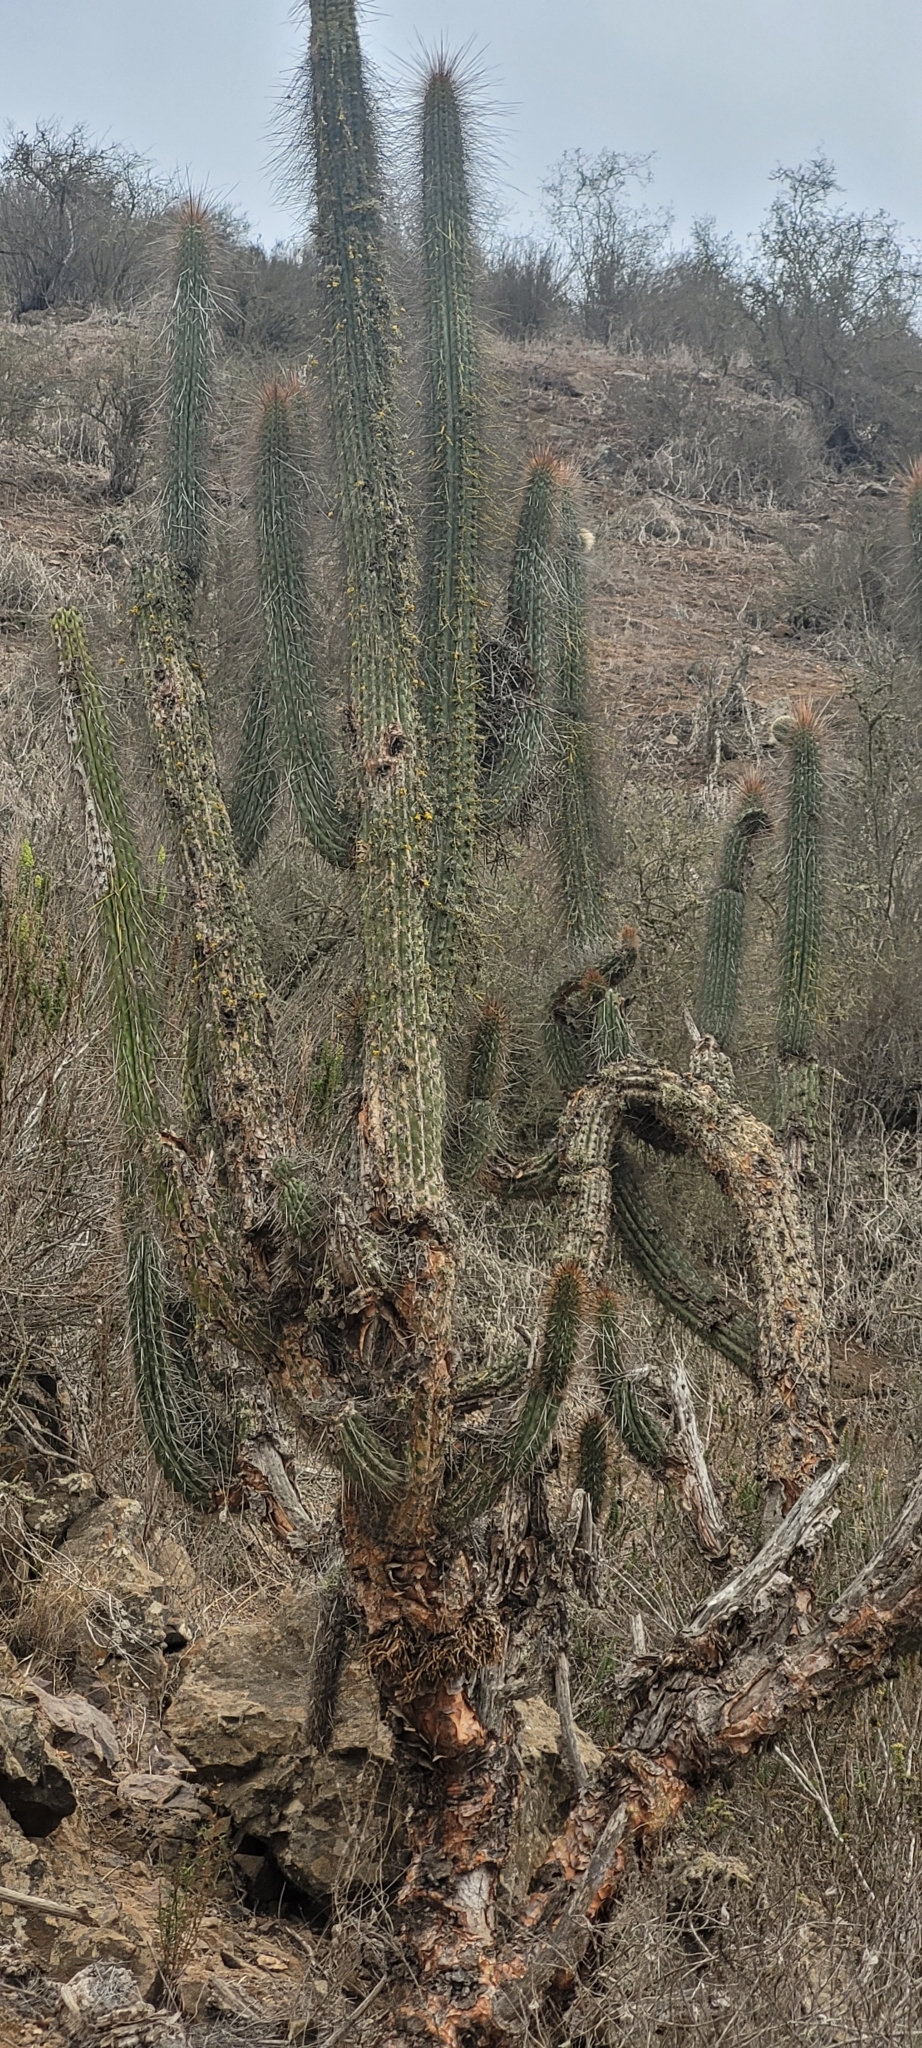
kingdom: Plantae
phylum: Tracheophyta
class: Magnoliopsida
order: Caryophyllales
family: Cactaceae
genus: Eulychnia
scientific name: Eulychnia breviflora
